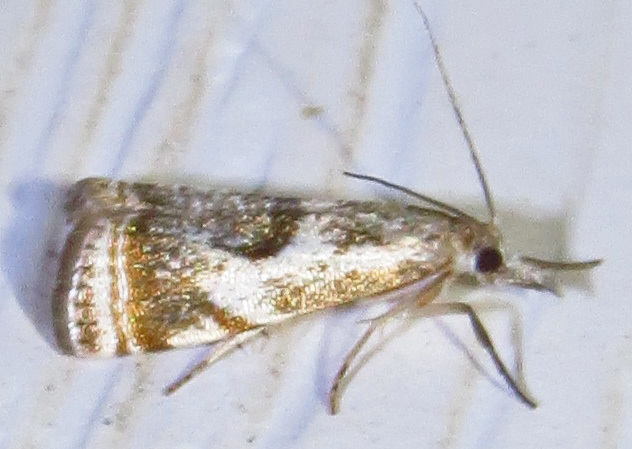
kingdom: Animalia
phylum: Arthropoda
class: Insecta
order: Lepidoptera
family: Crambidae
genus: Microcrambus
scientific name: Microcrambus elegans
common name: Elegant grass-veneer
